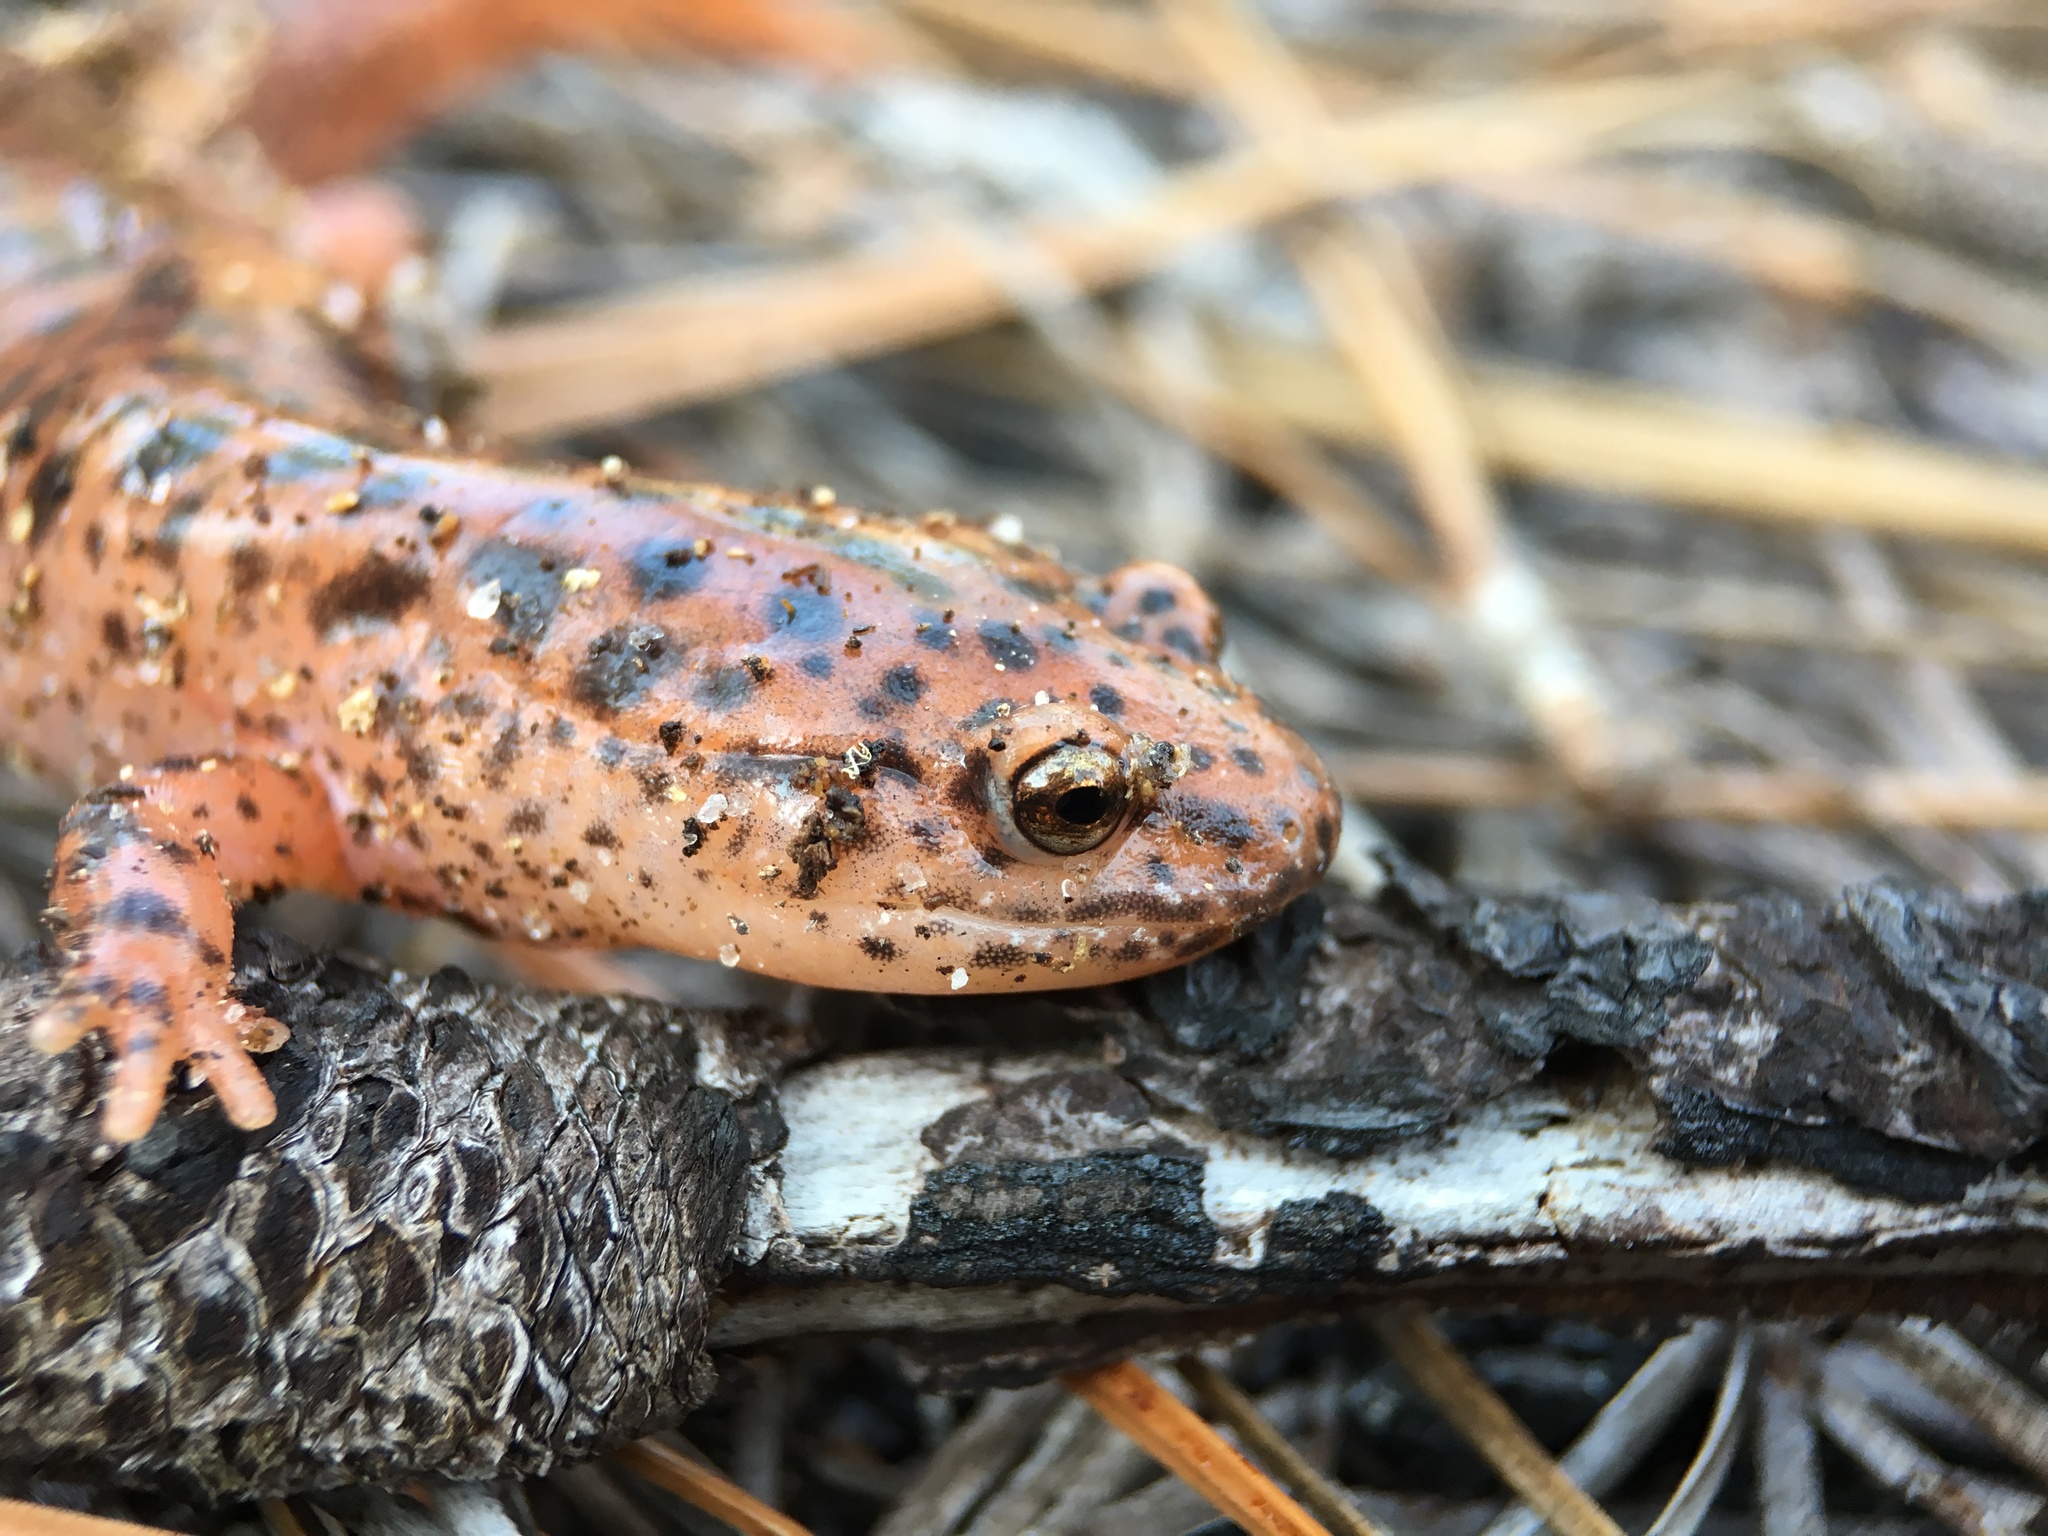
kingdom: Animalia
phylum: Chordata
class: Amphibia
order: Caudata
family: Plethodontidae
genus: Pseudotriton
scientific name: Pseudotriton ruber
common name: Red salamander
